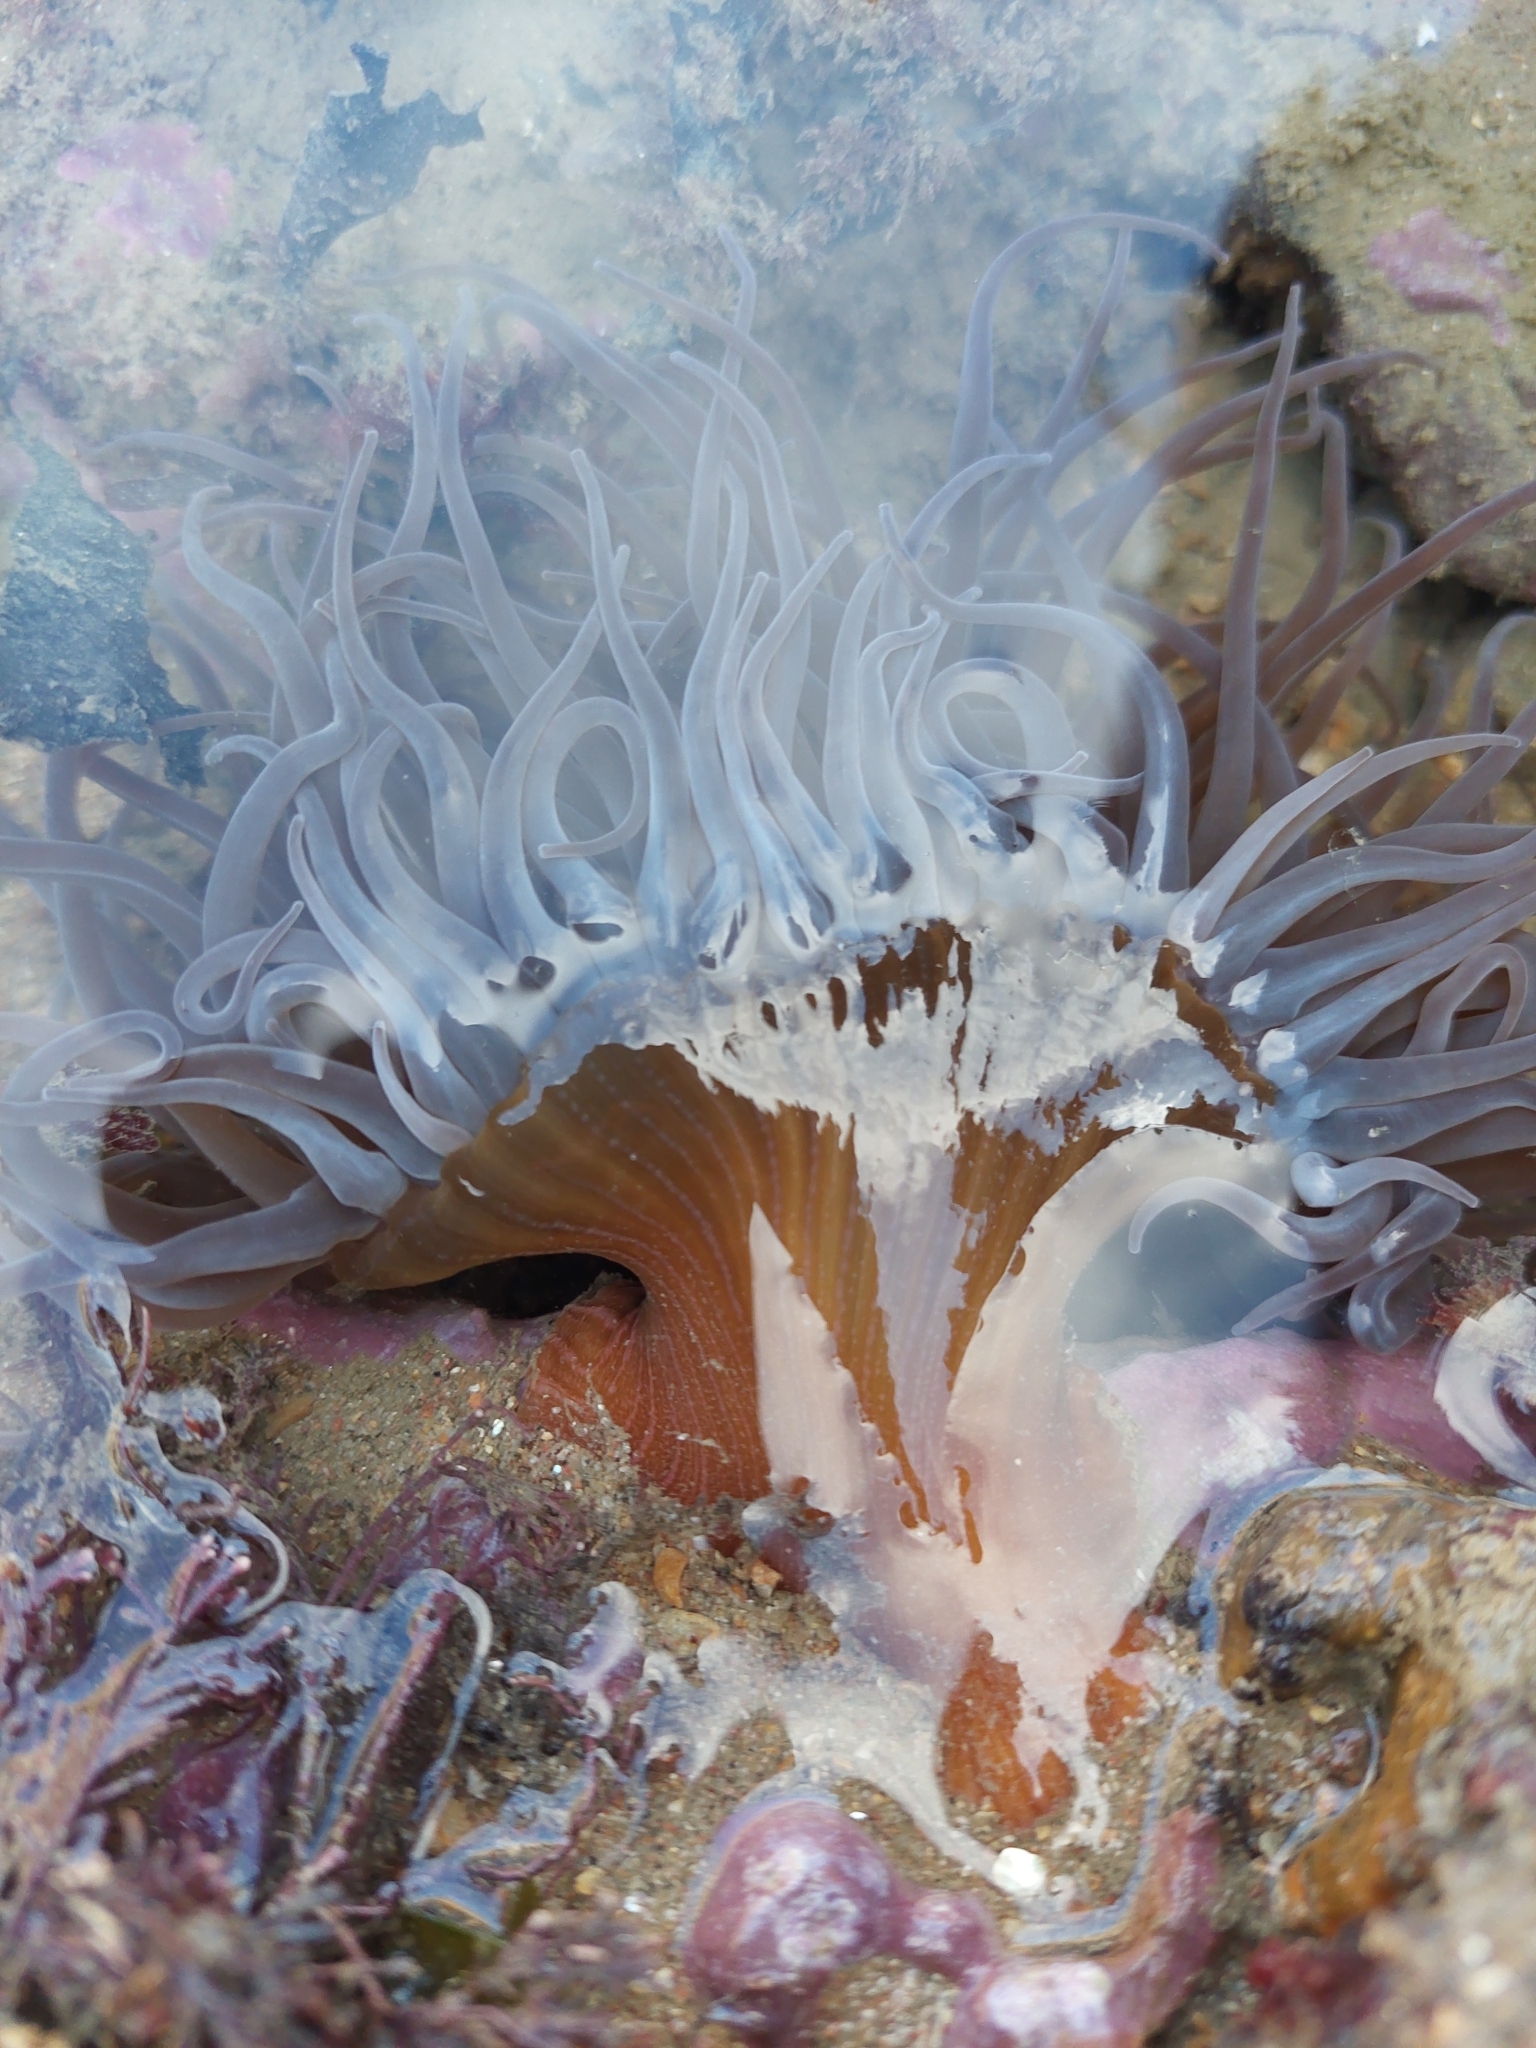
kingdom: Animalia
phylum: Cnidaria
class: Anthozoa
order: Actiniaria
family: Actiniidae
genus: Anemonia
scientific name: Anemonia viridis
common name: Snakelocks anemone
